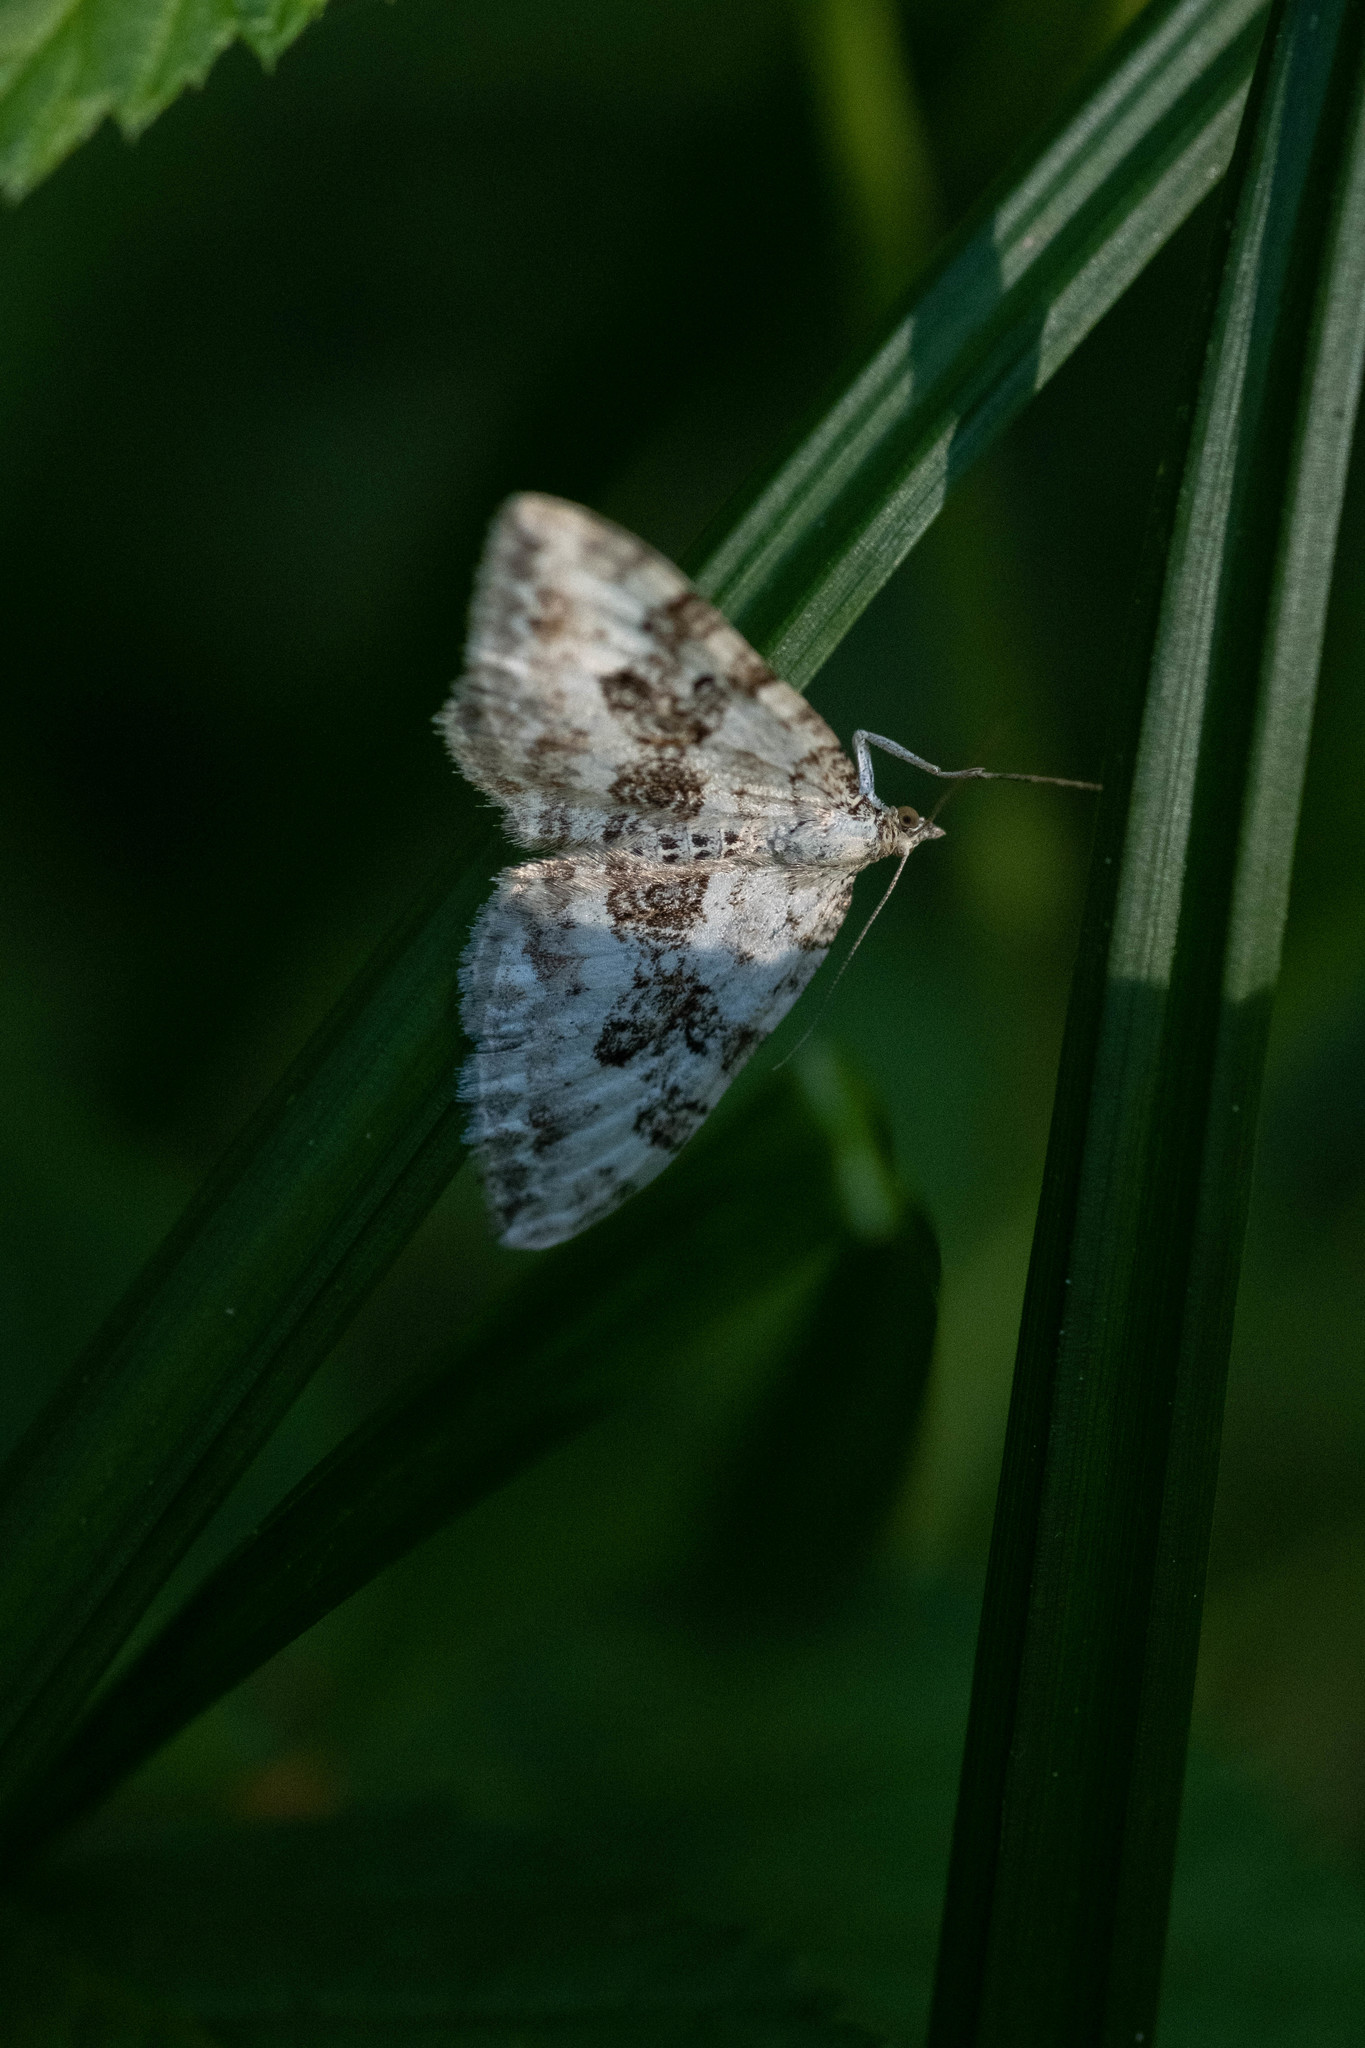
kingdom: Animalia
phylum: Arthropoda
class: Insecta
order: Lepidoptera
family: Geometridae
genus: Xanthorhoe
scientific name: Xanthorhoe montanata
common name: Silver-ground carpet
